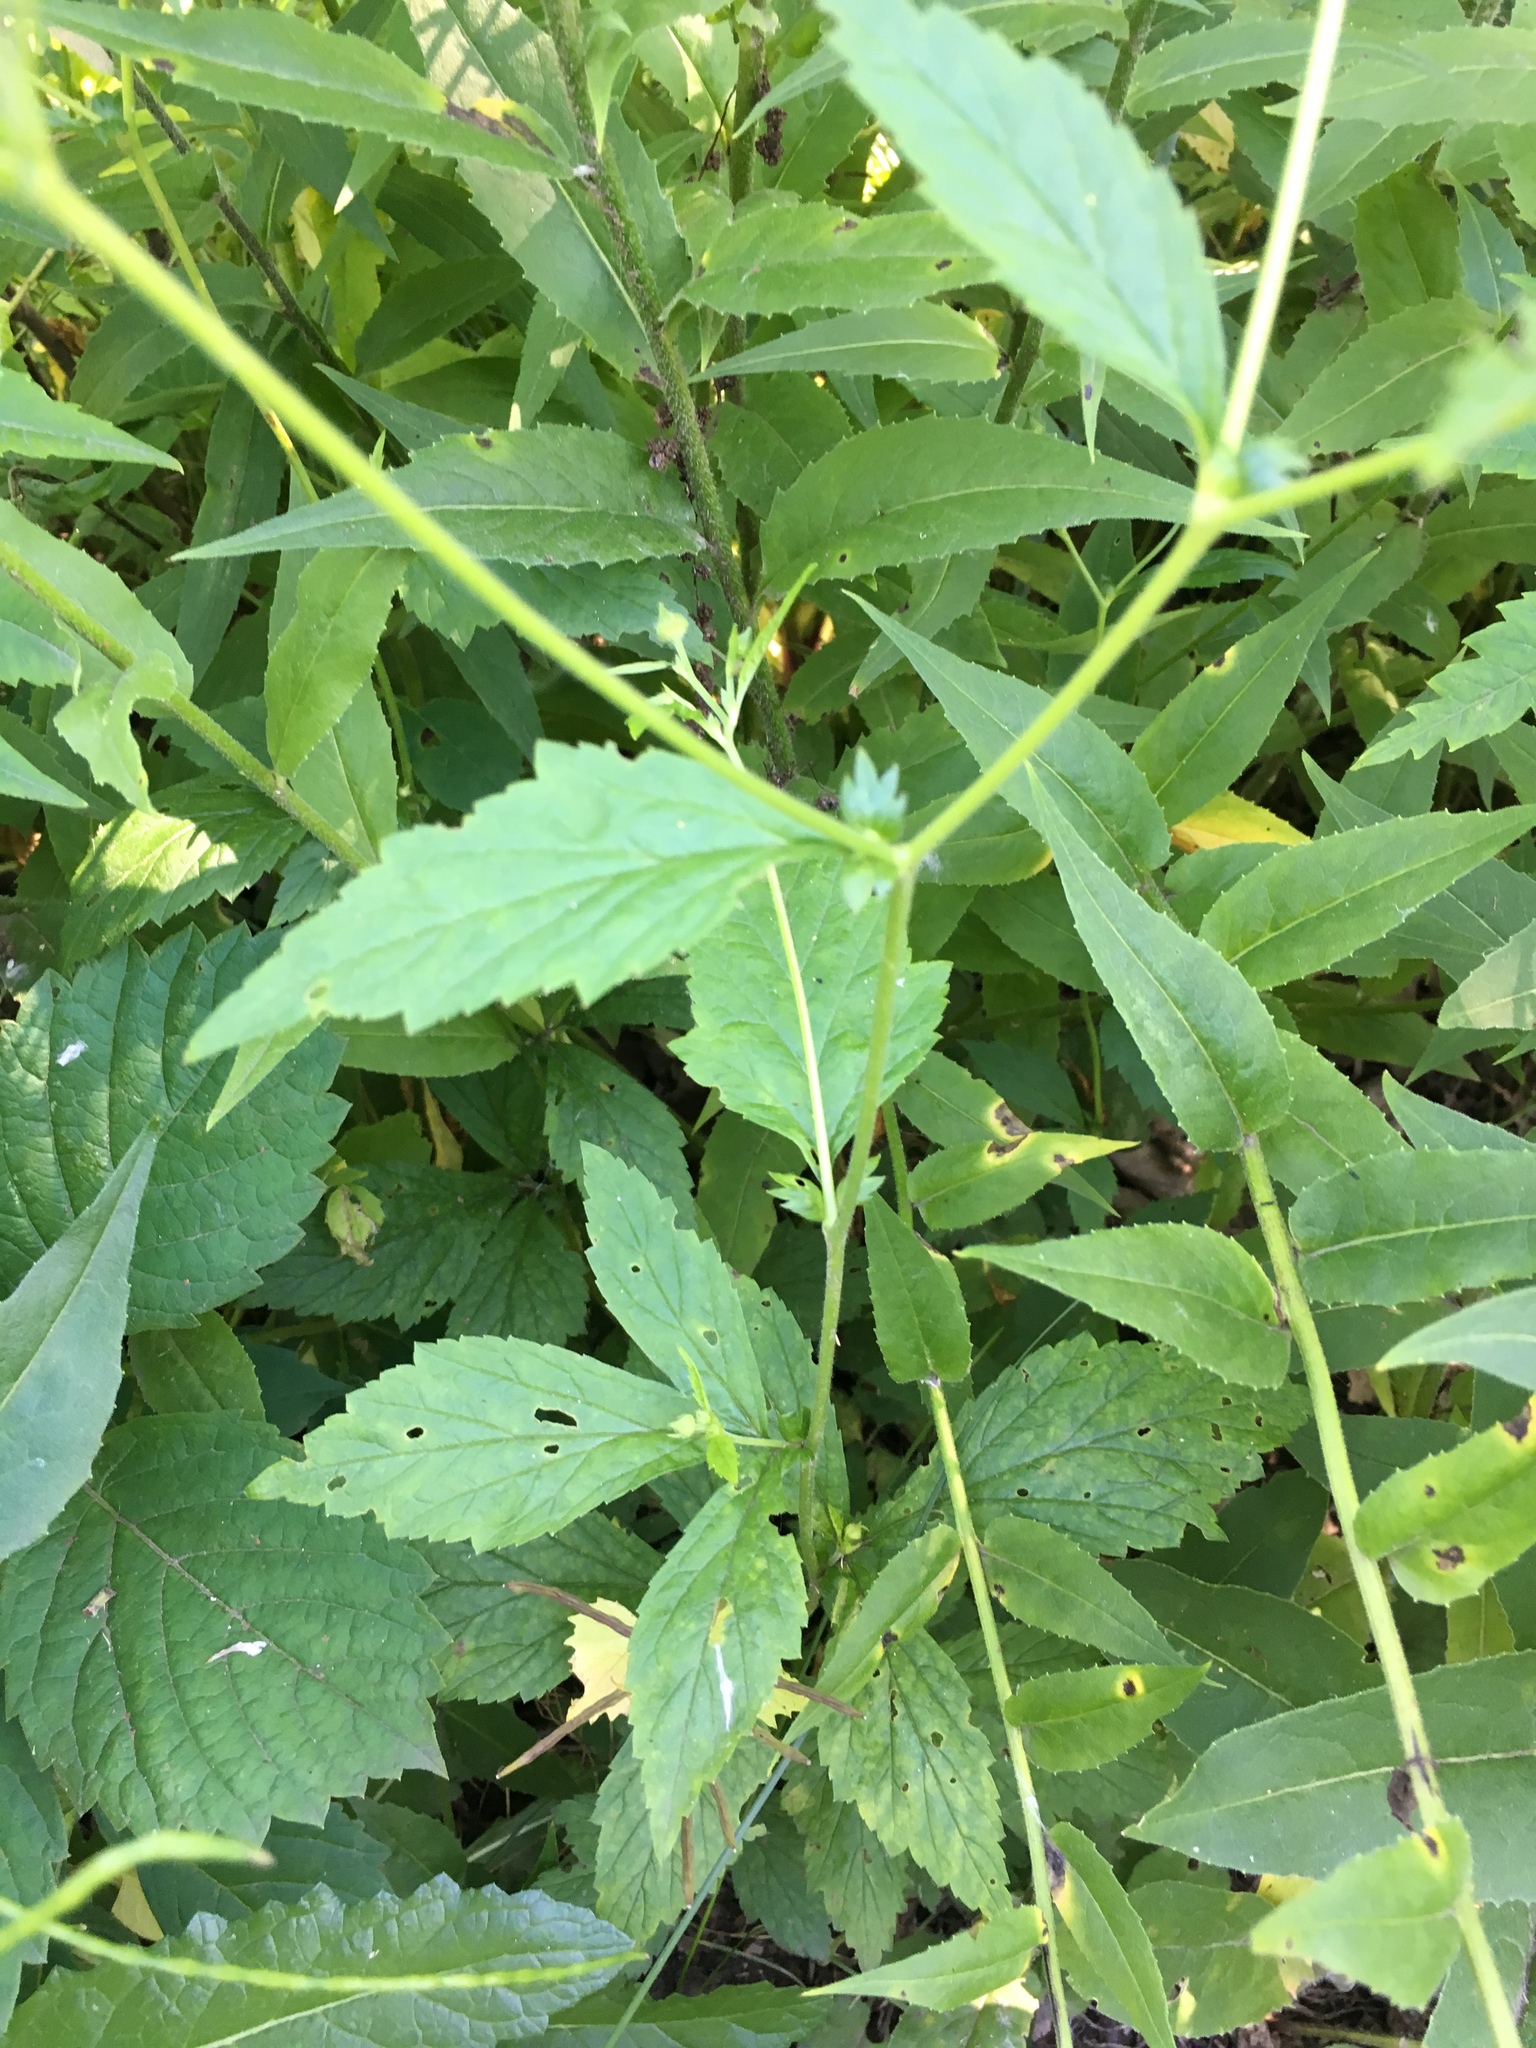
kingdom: Plantae
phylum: Tracheophyta
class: Magnoliopsida
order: Rosales
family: Rosaceae
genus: Geum
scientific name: Geum canadense
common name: White avens
